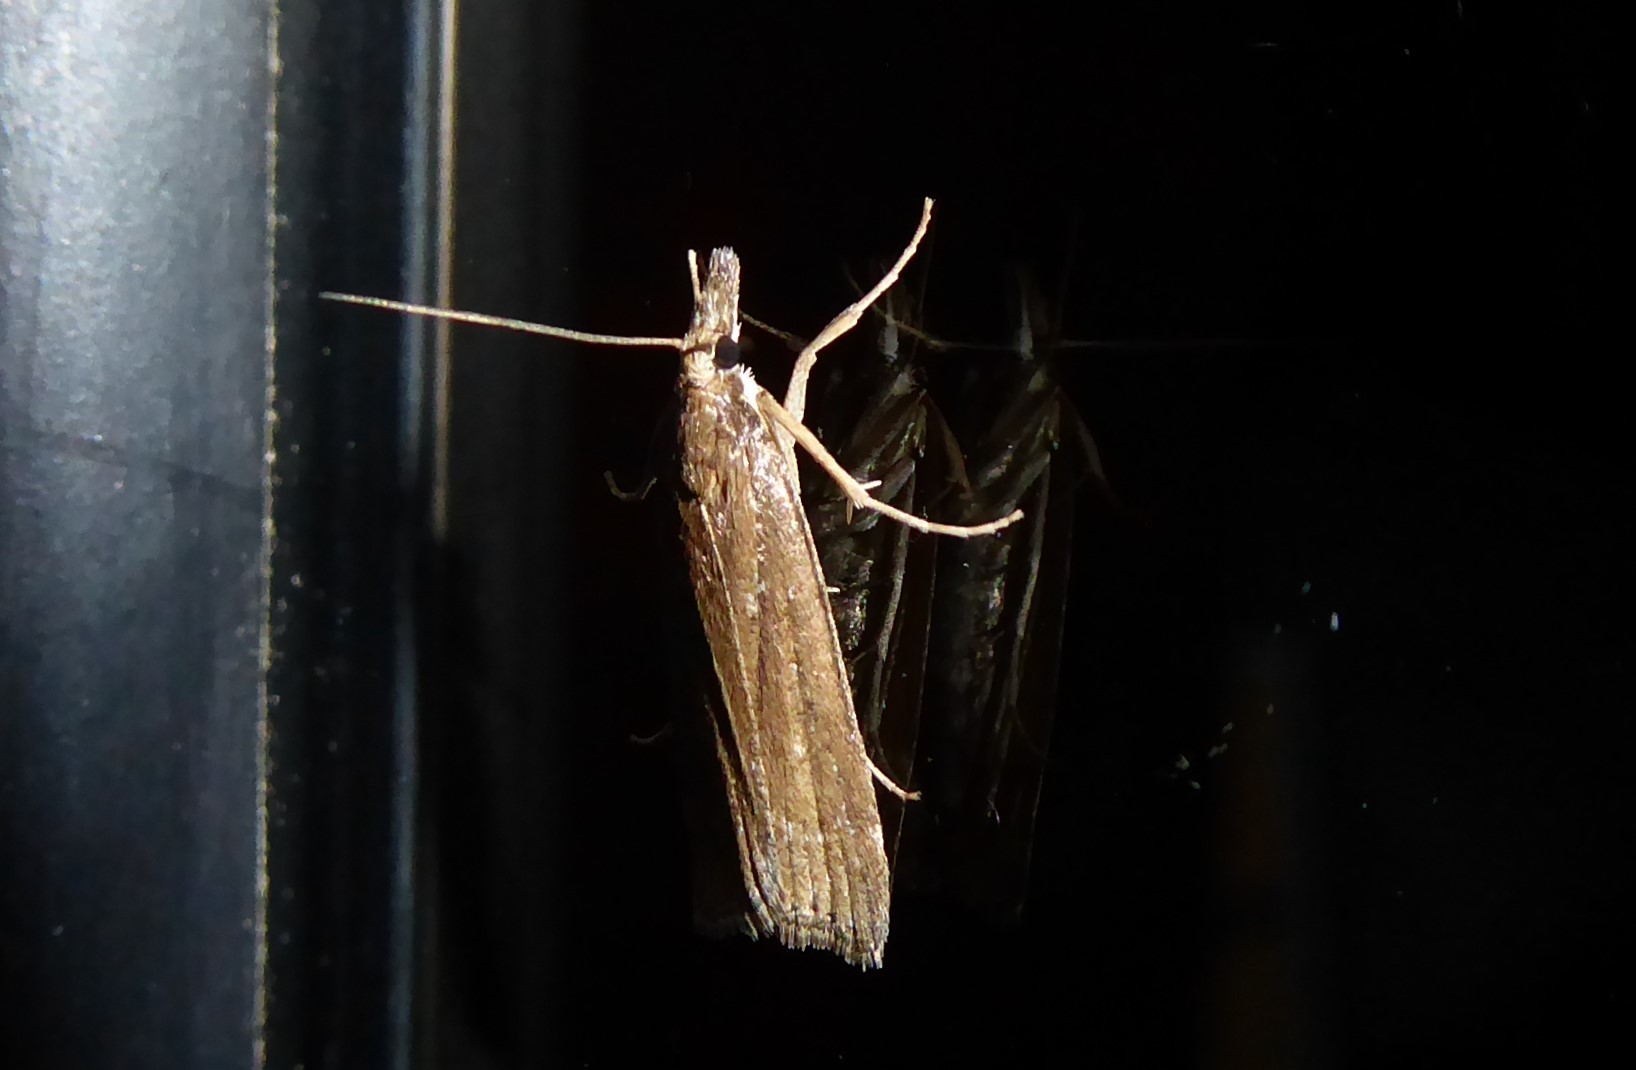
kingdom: Animalia
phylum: Arthropoda
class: Insecta
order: Lepidoptera
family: Crambidae
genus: Eudonia
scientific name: Eudonia feredayi
